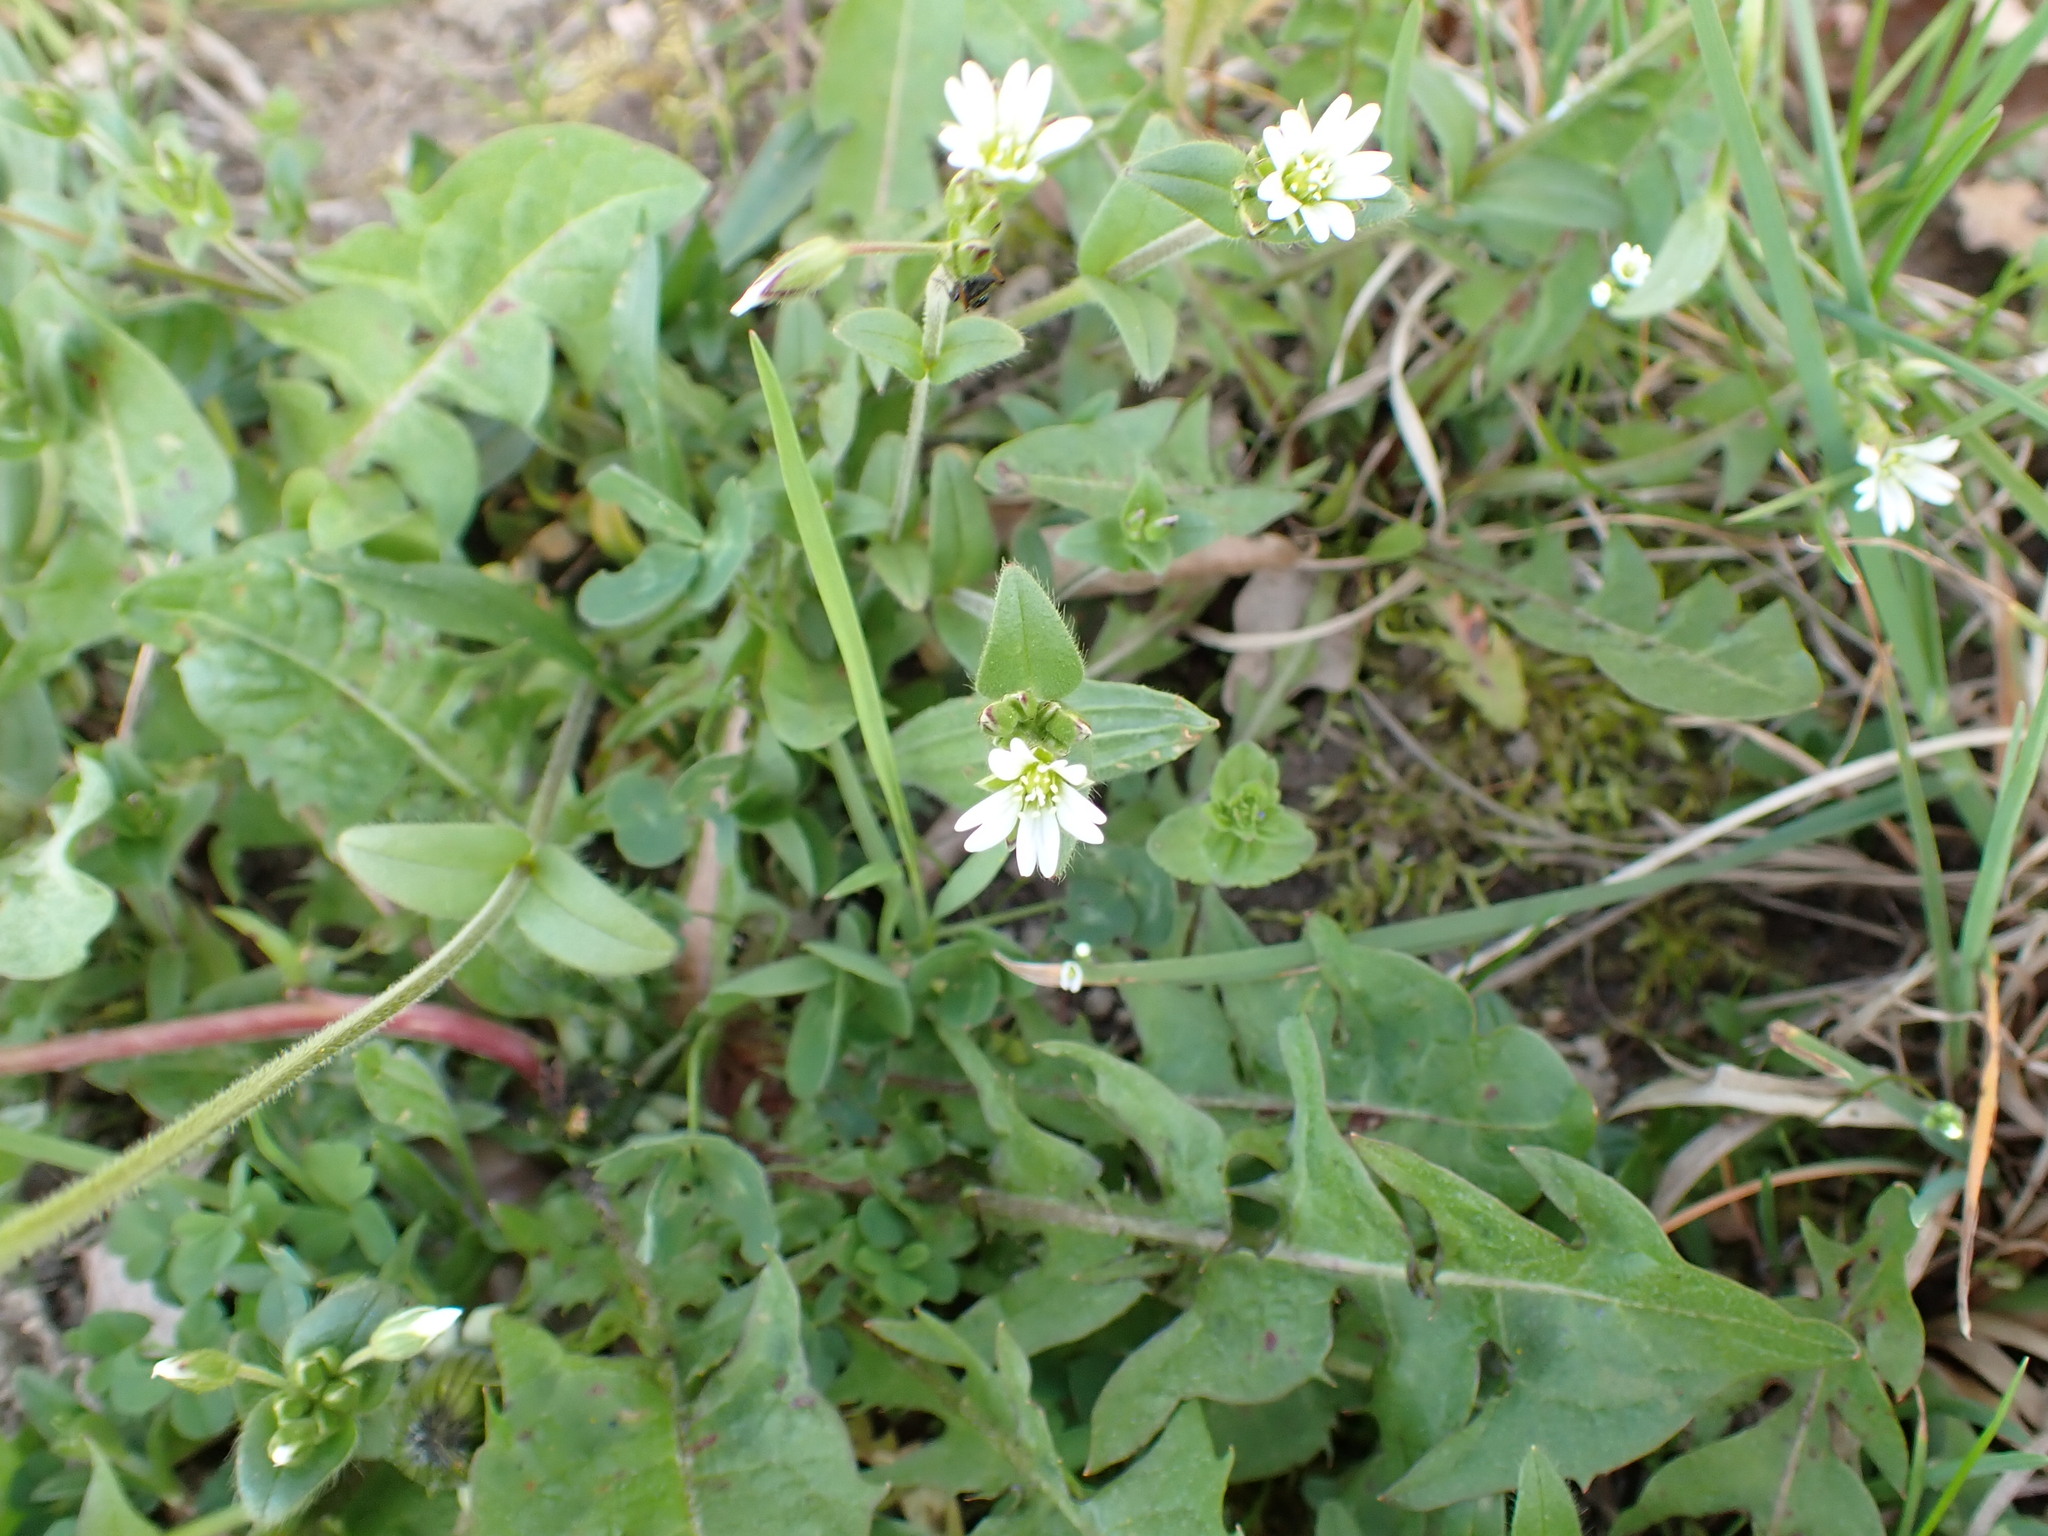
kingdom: Plantae
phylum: Tracheophyta
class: Magnoliopsida
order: Caryophyllales
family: Caryophyllaceae
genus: Cerastium
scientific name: Cerastium holosteoides
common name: Big chickweed
